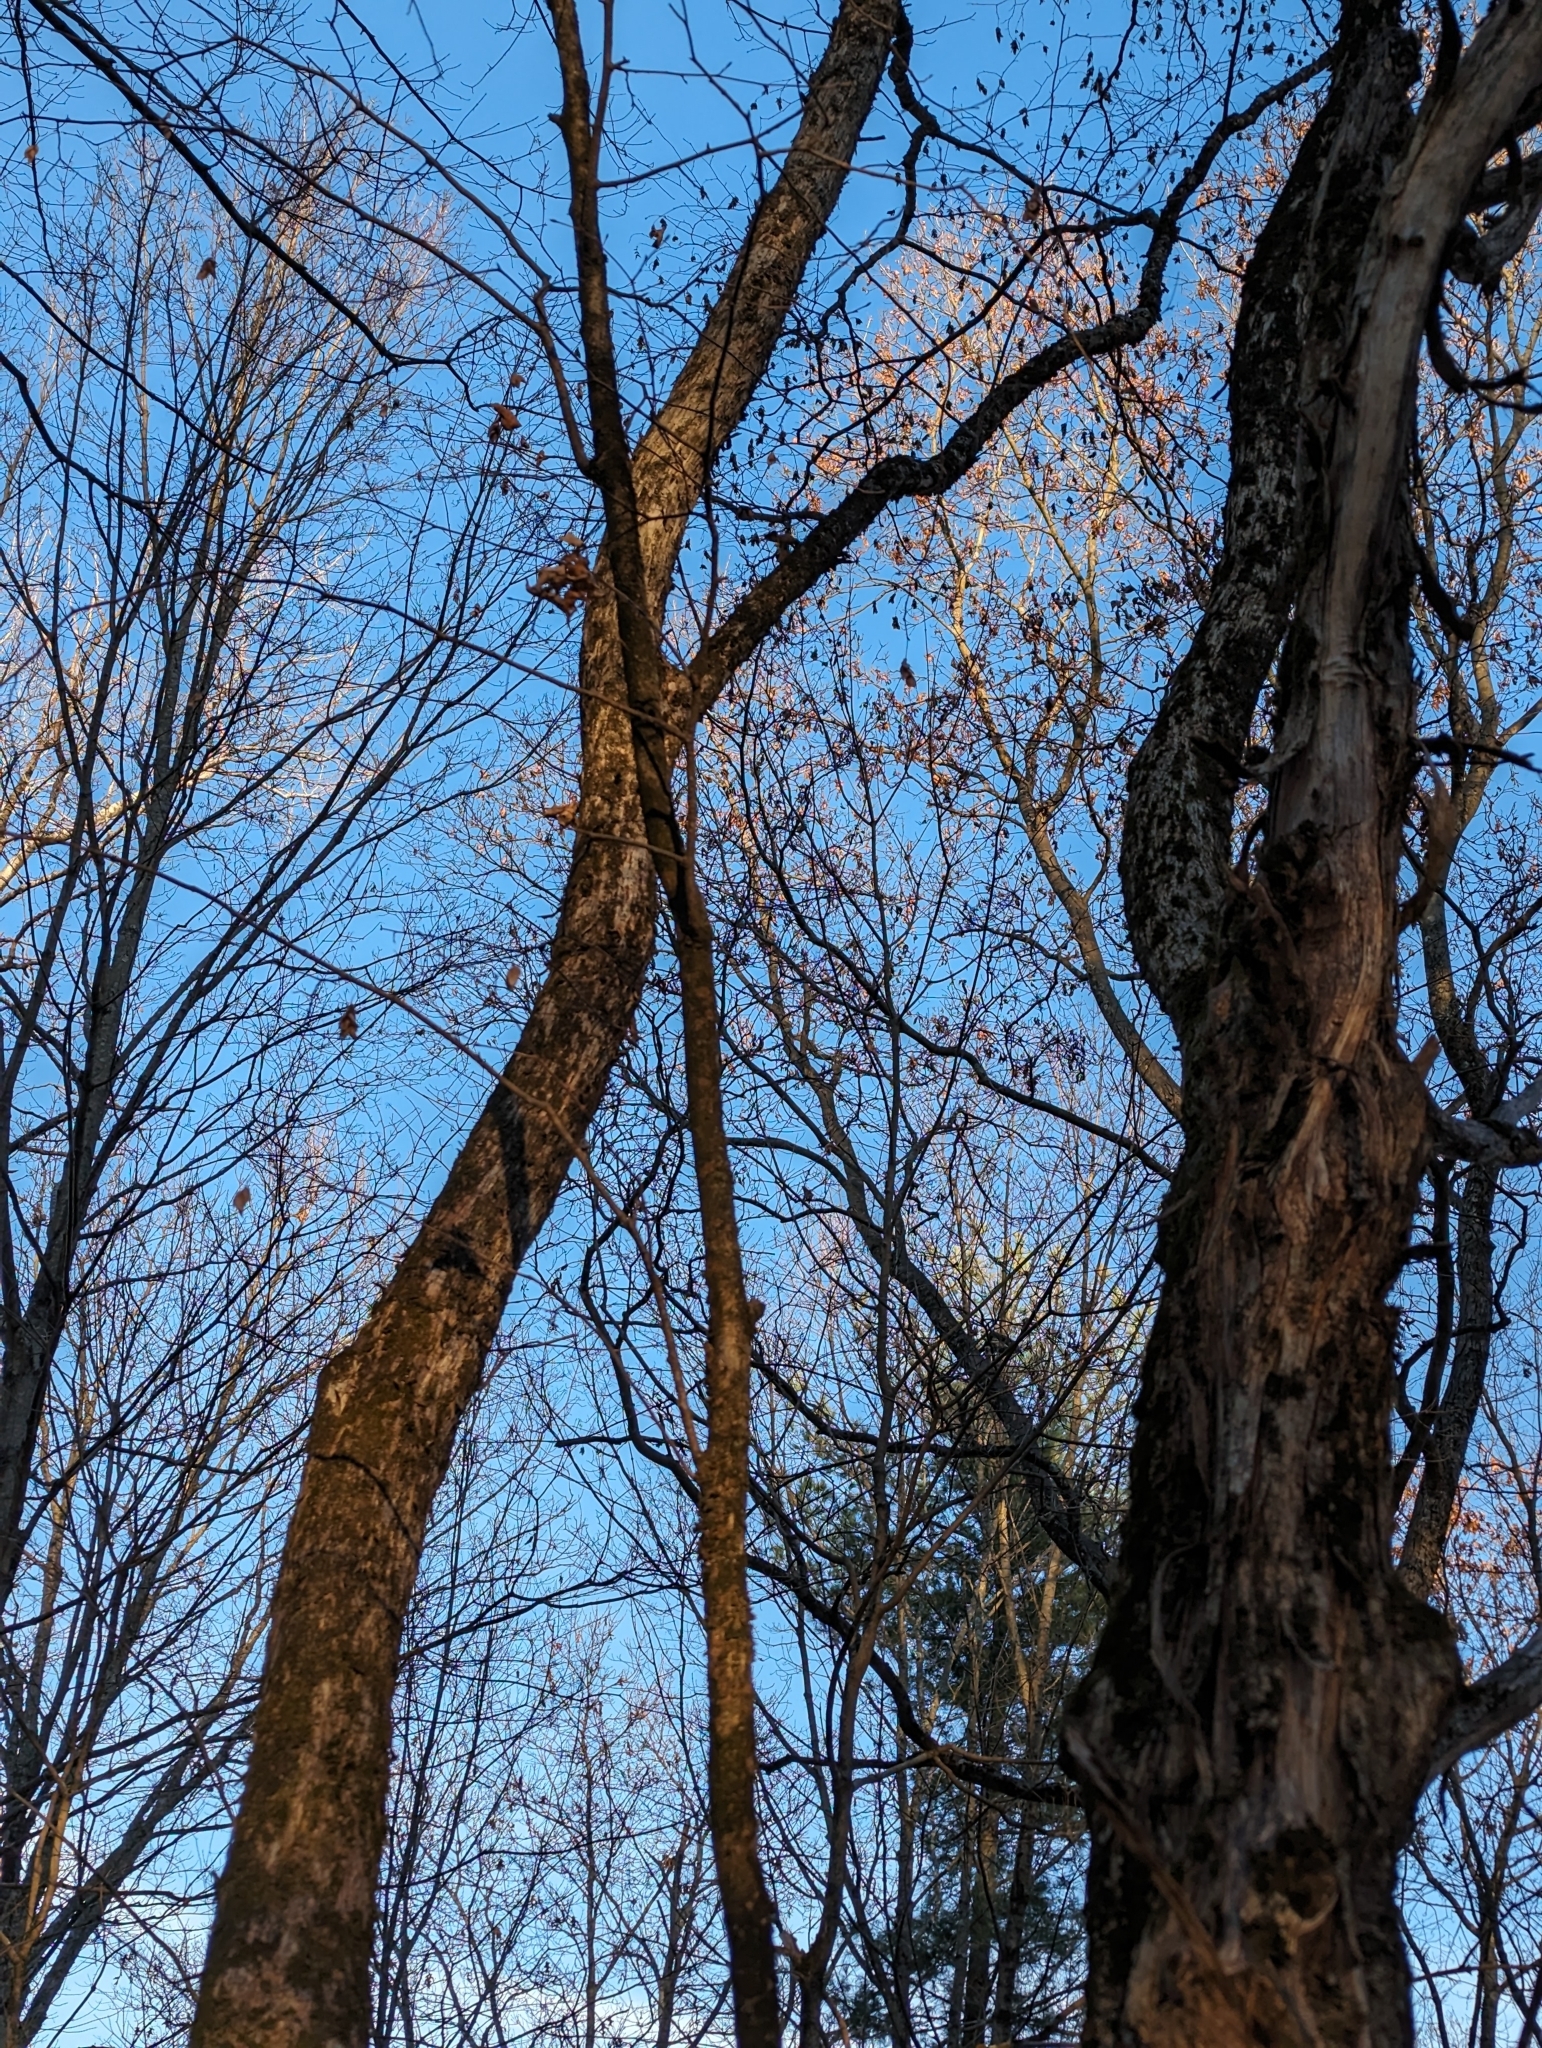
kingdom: Plantae
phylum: Tracheophyta
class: Magnoliopsida
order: Fagales
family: Betulaceae
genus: Ostrya
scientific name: Ostrya virginiana
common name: Ironwood
